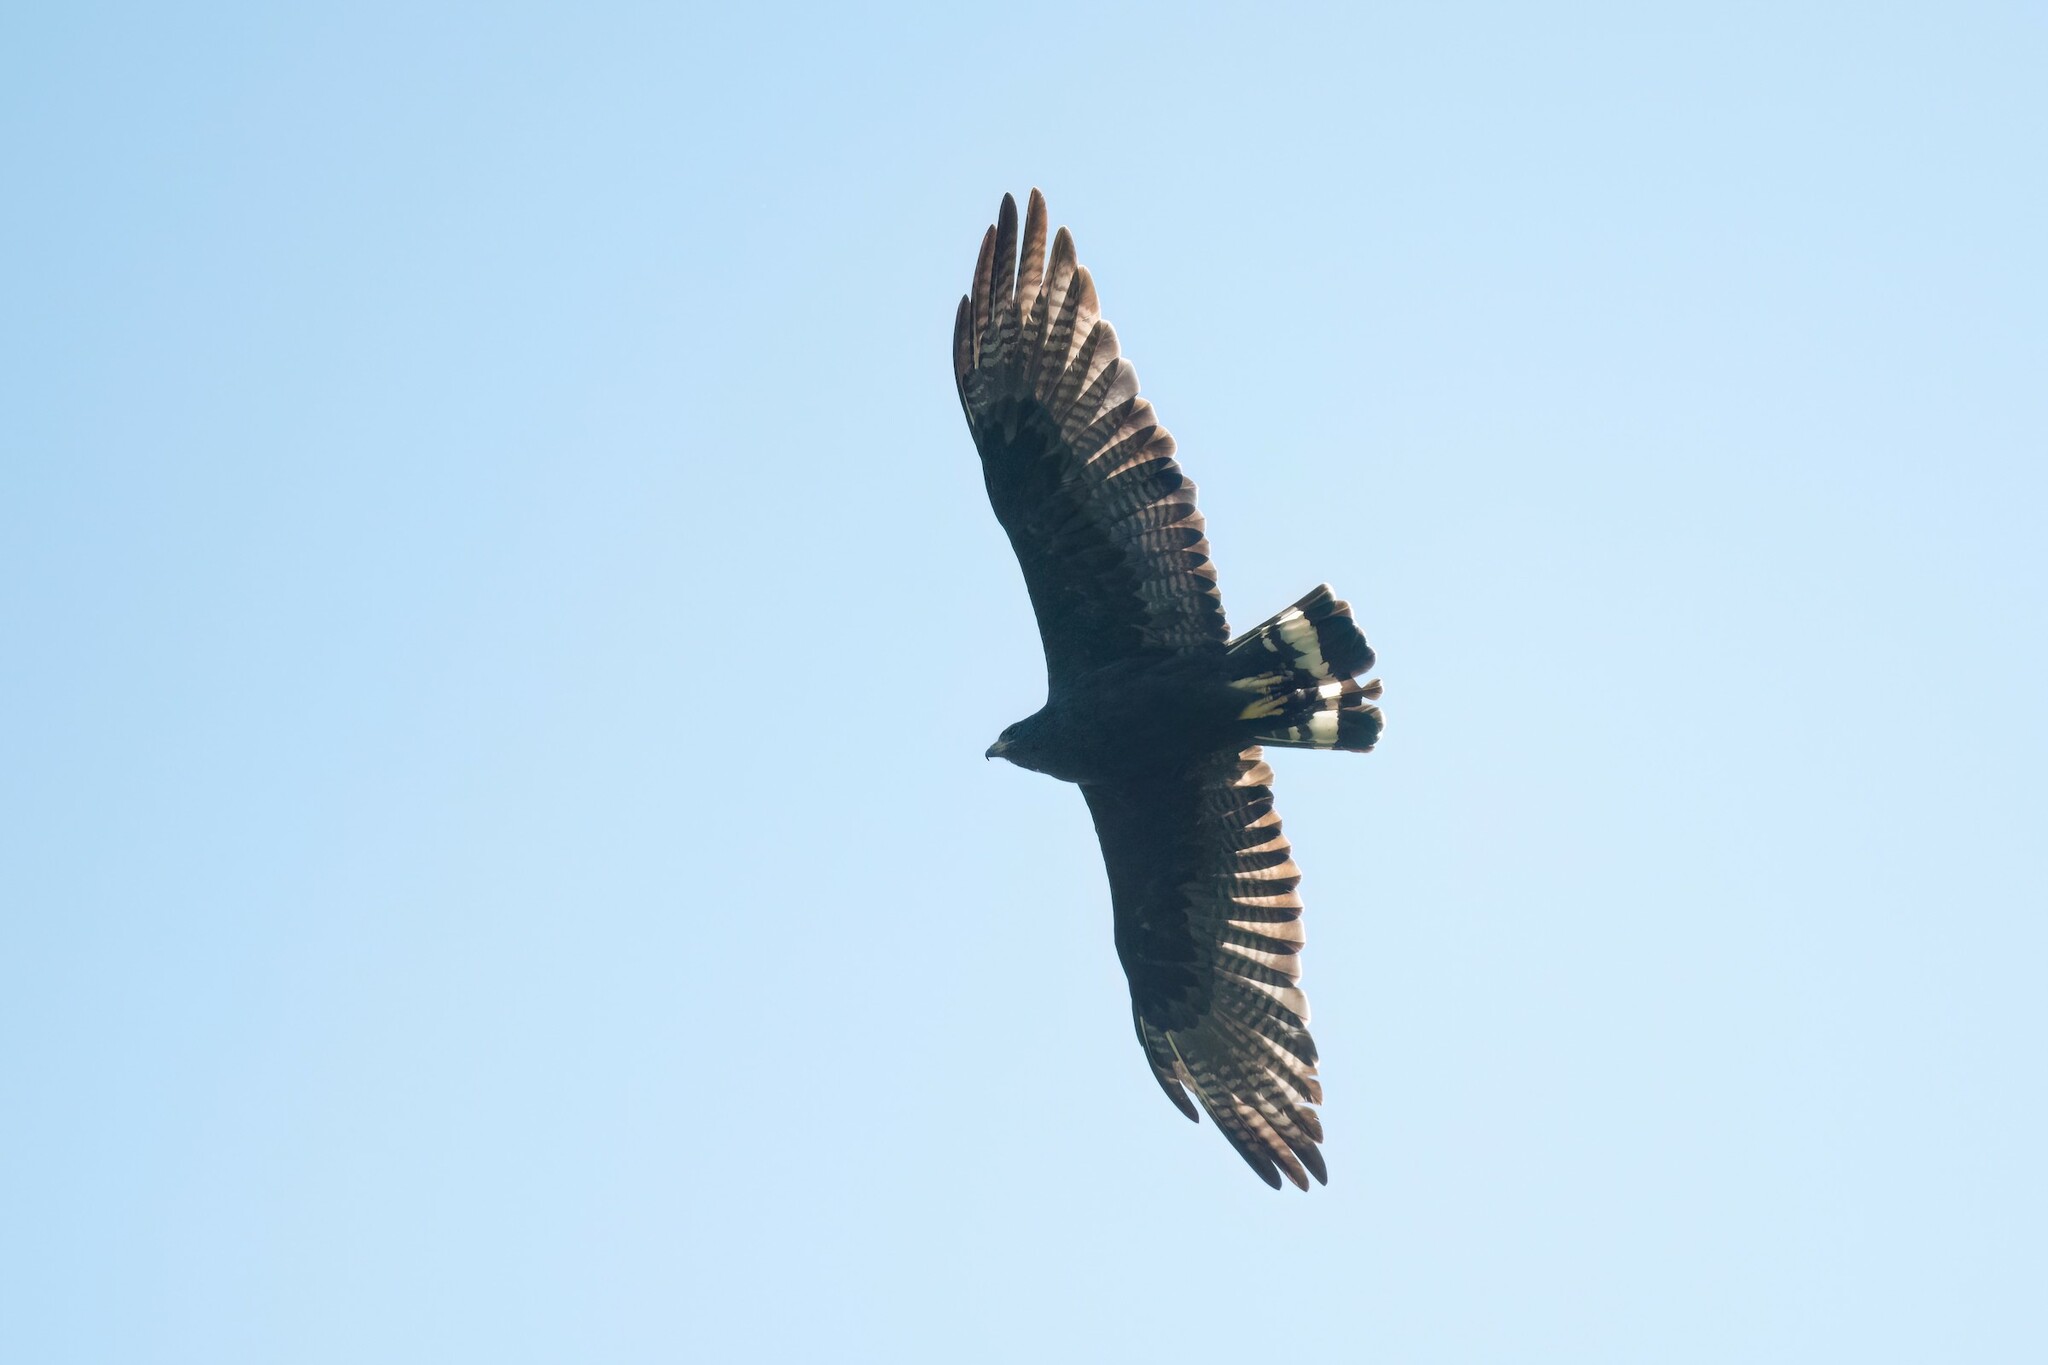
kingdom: Animalia
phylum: Chordata
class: Aves
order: Accipitriformes
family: Accipitridae
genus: Buteo
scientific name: Buteo albonotatus
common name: Zone-tailed hawk
